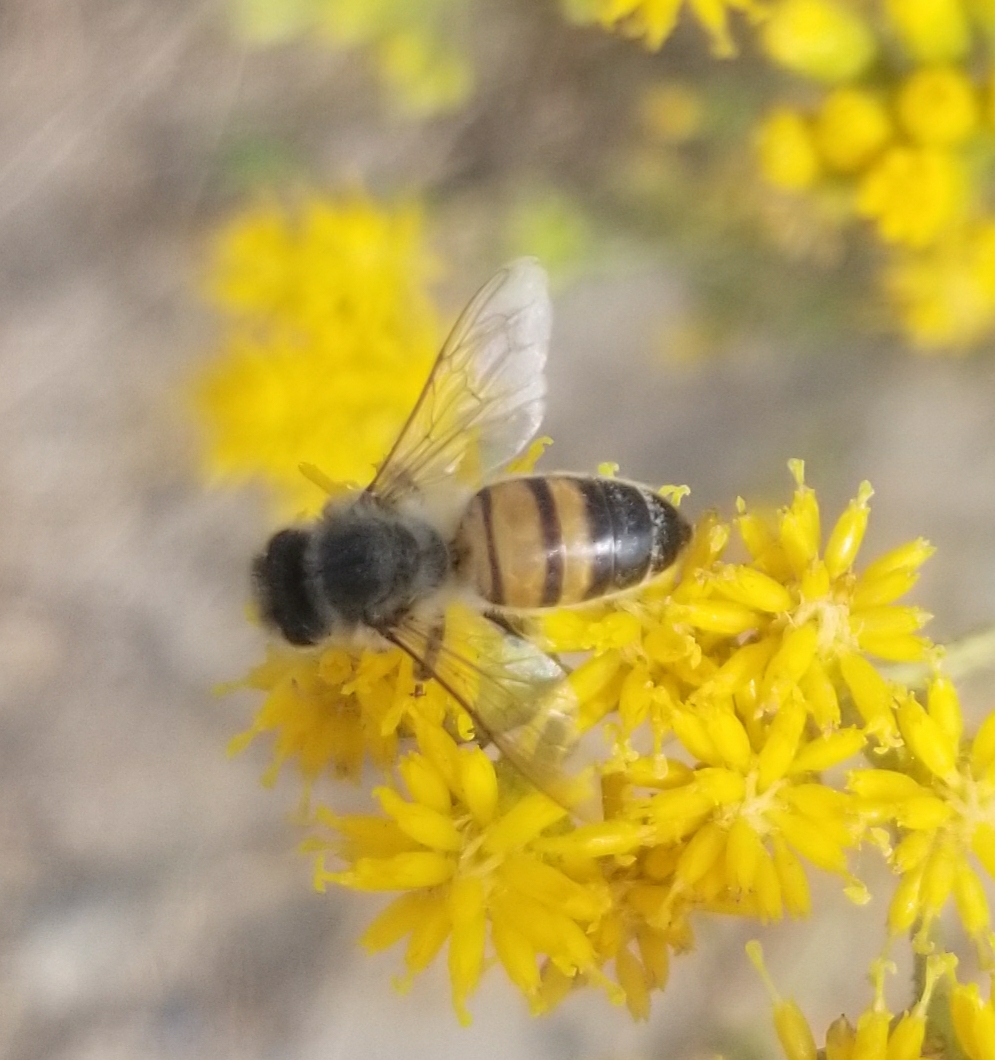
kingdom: Animalia
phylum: Arthropoda
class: Insecta
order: Hymenoptera
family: Apidae
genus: Apis
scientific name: Apis mellifera
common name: Honey bee
